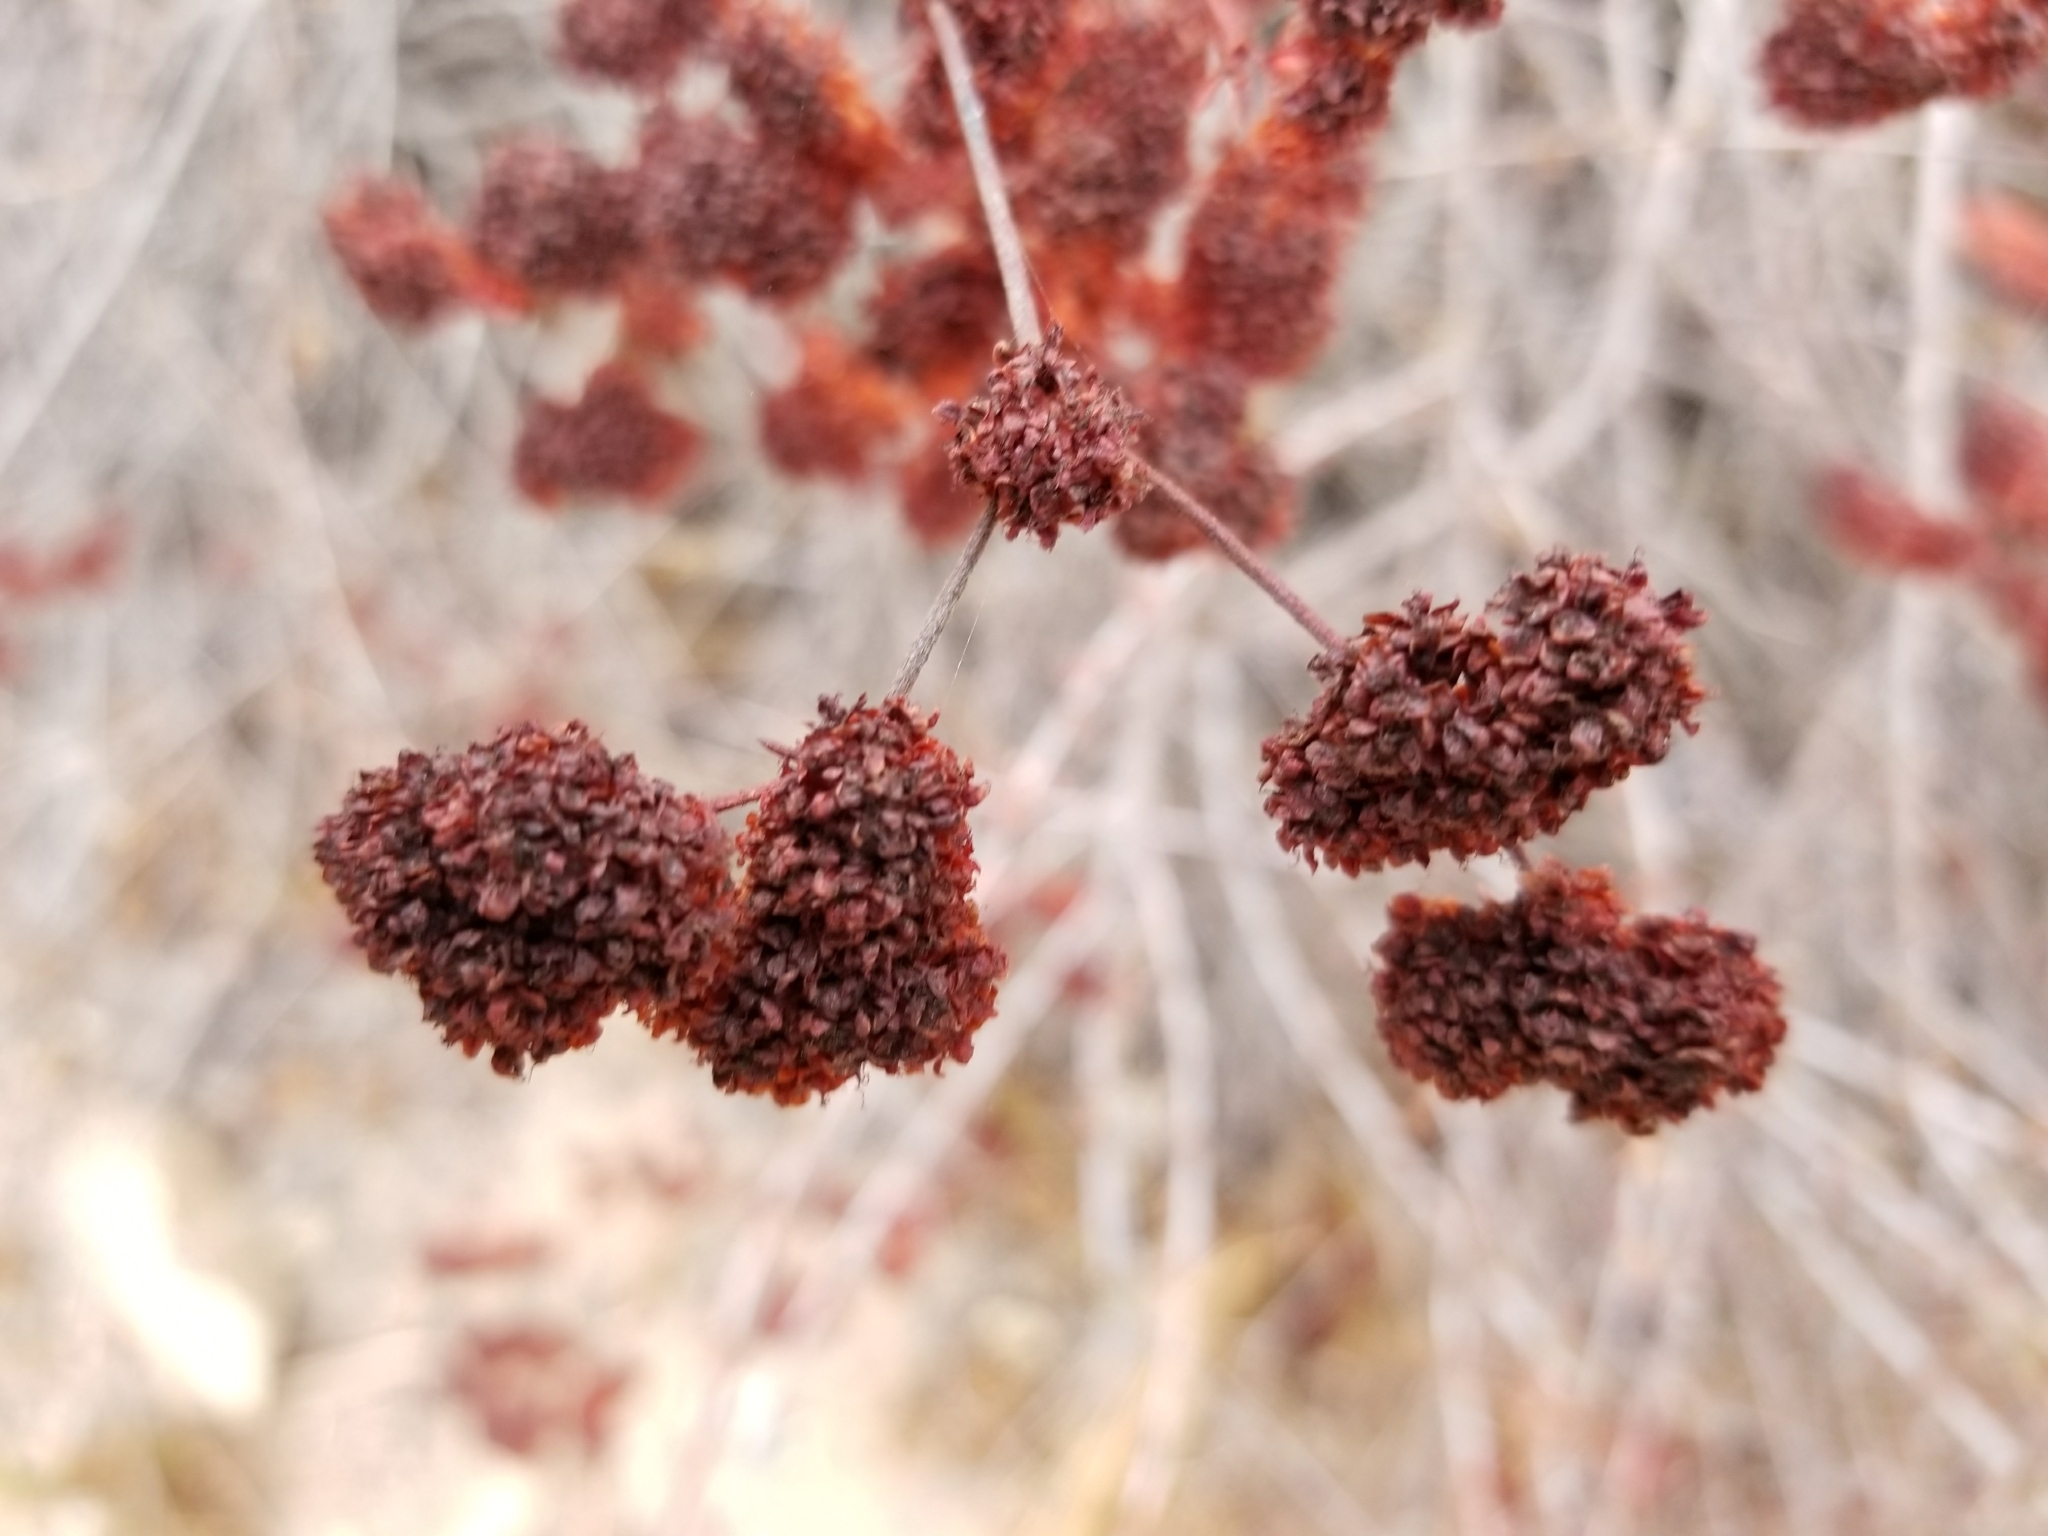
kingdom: Plantae
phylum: Tracheophyta
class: Magnoliopsida
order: Caryophyllales
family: Polygonaceae
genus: Eriogonum
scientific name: Eriogonum fasciculatum
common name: California wild buckwheat
